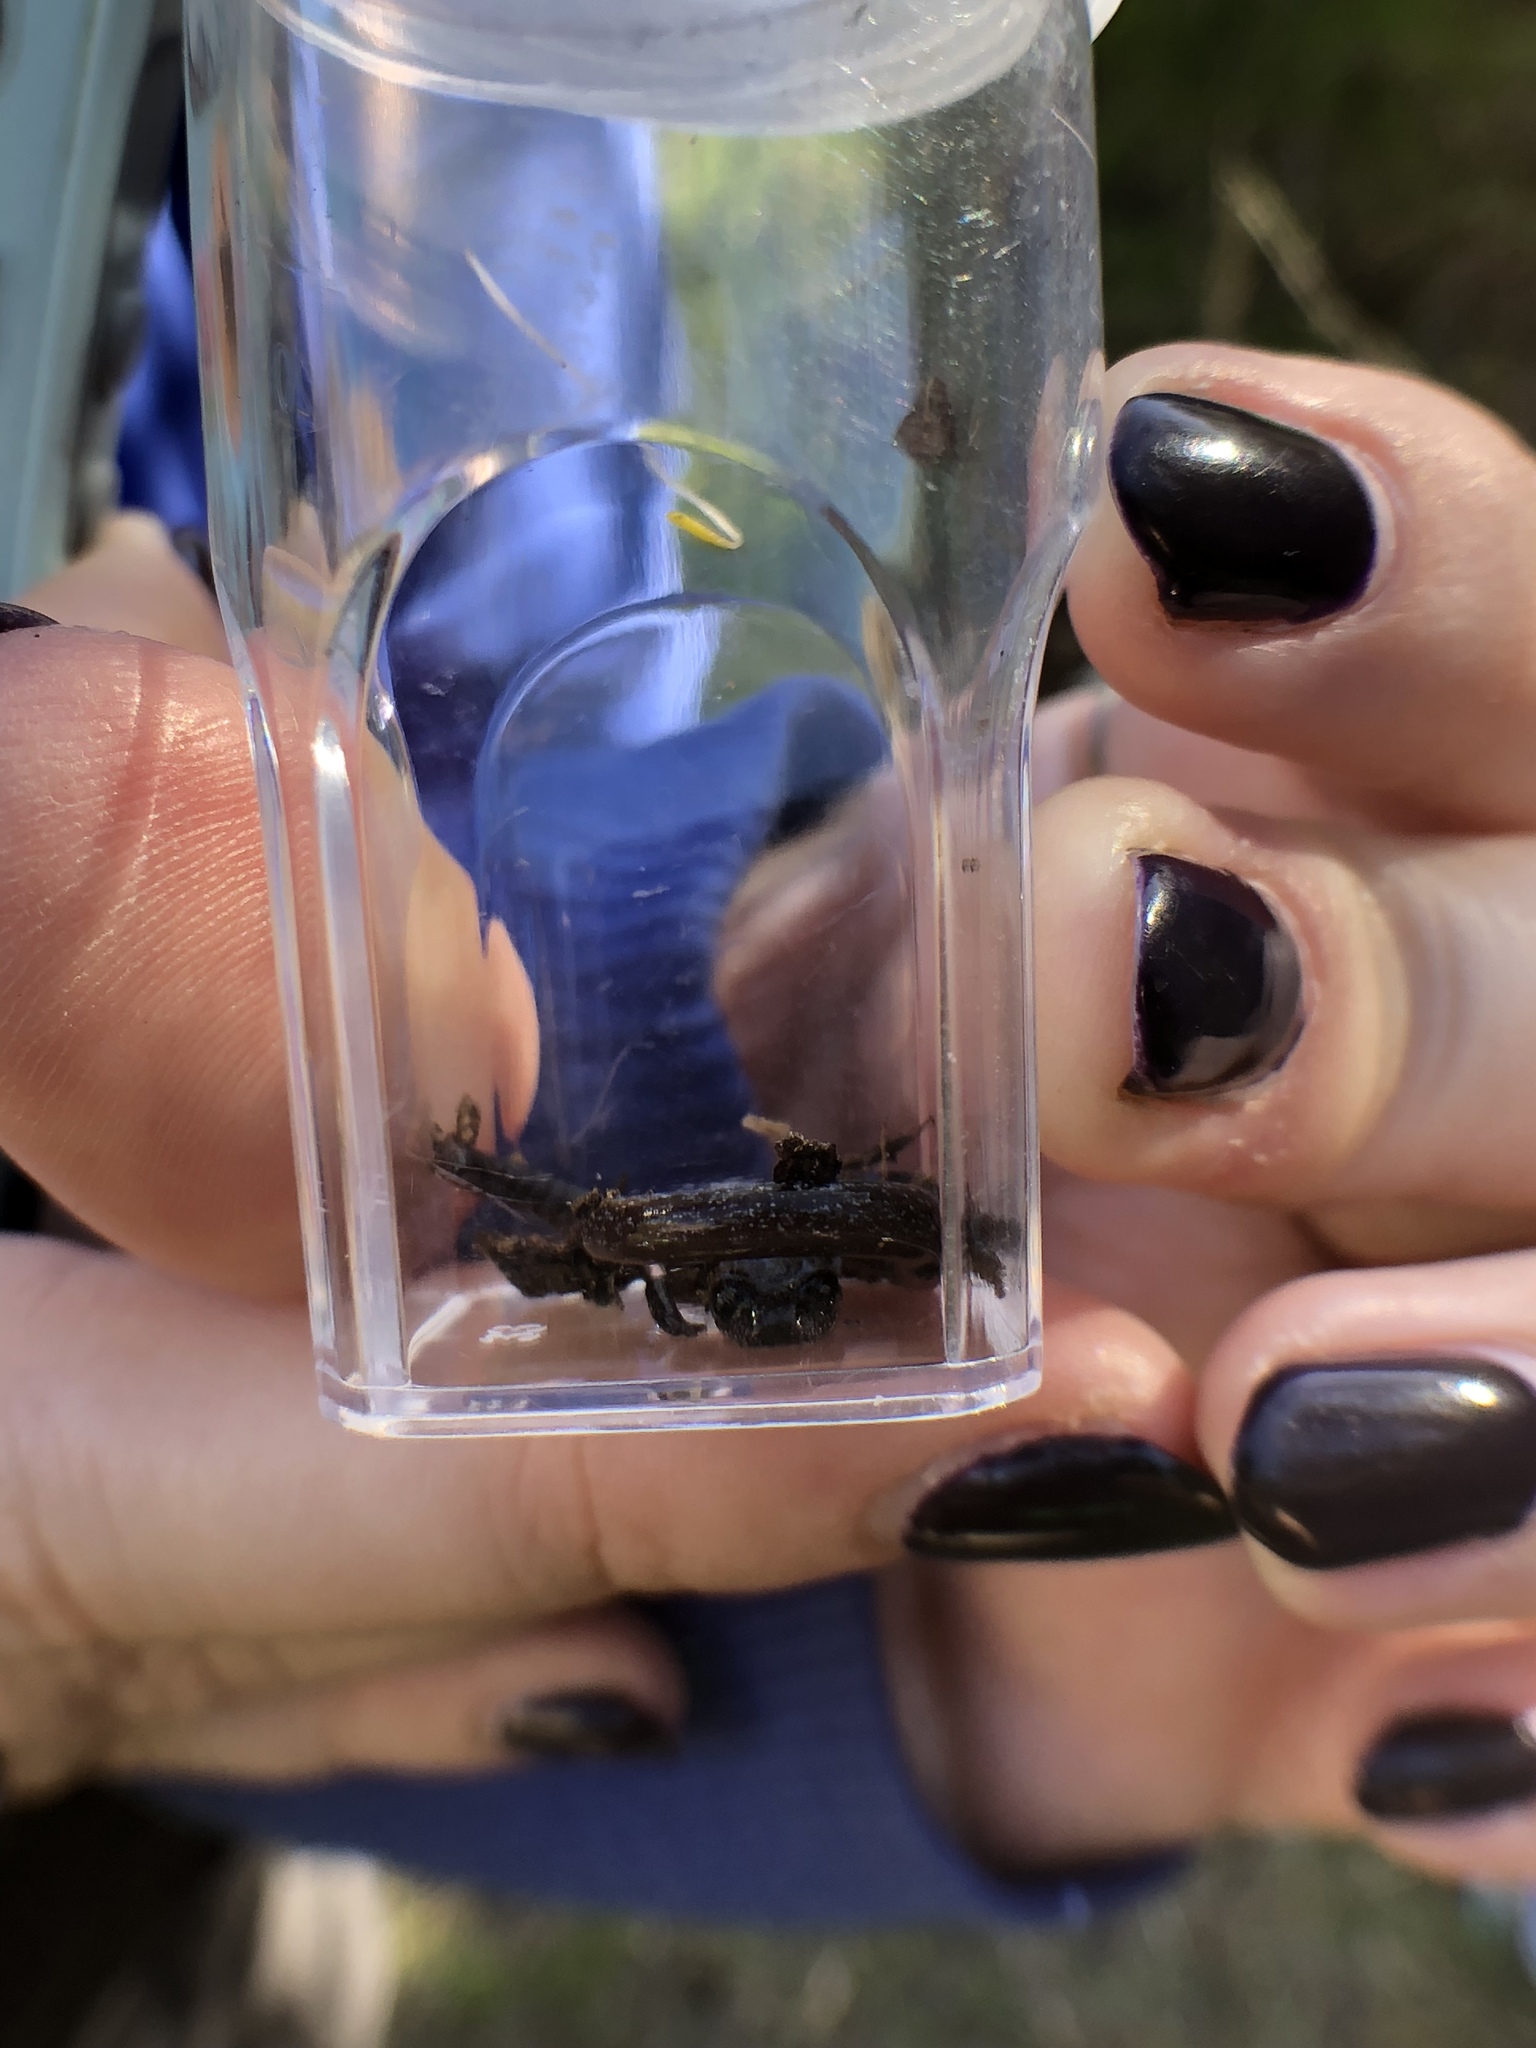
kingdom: Animalia
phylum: Chordata
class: Amphibia
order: Caudata
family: Plethodontidae
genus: Batrachoseps
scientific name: Batrachoseps major
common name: Garden slender salamander
